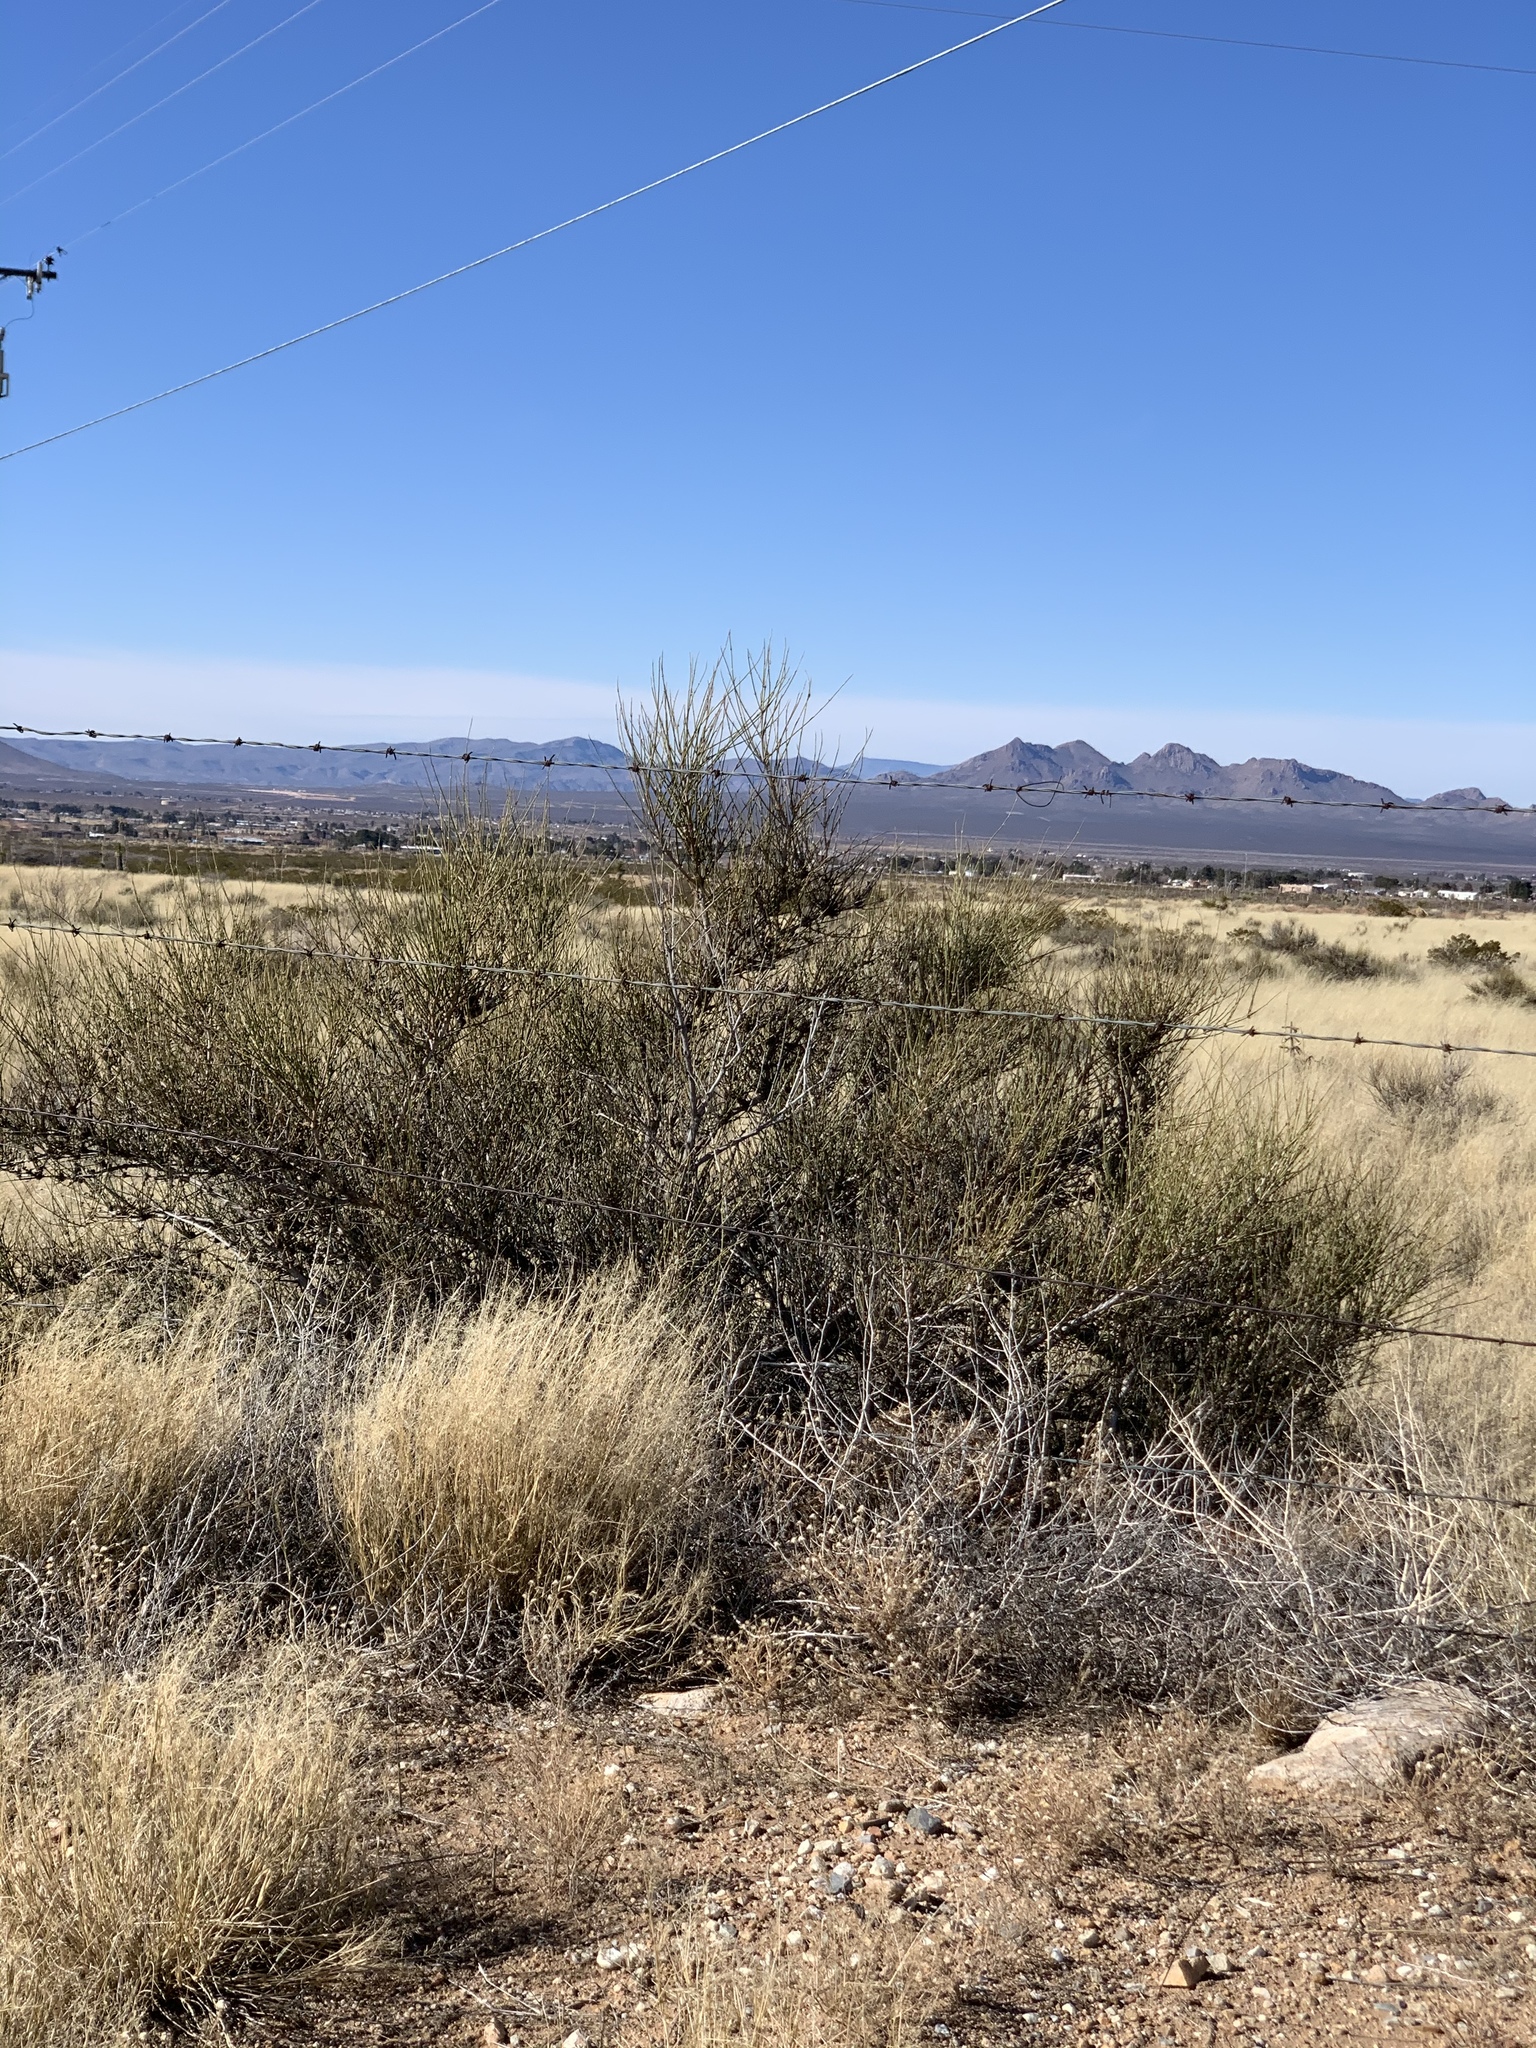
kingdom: Plantae
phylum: Tracheophyta
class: Gnetopsida
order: Ephedrales
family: Ephedraceae
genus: Ephedra
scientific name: Ephedra trifurca
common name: Mexican-tea
